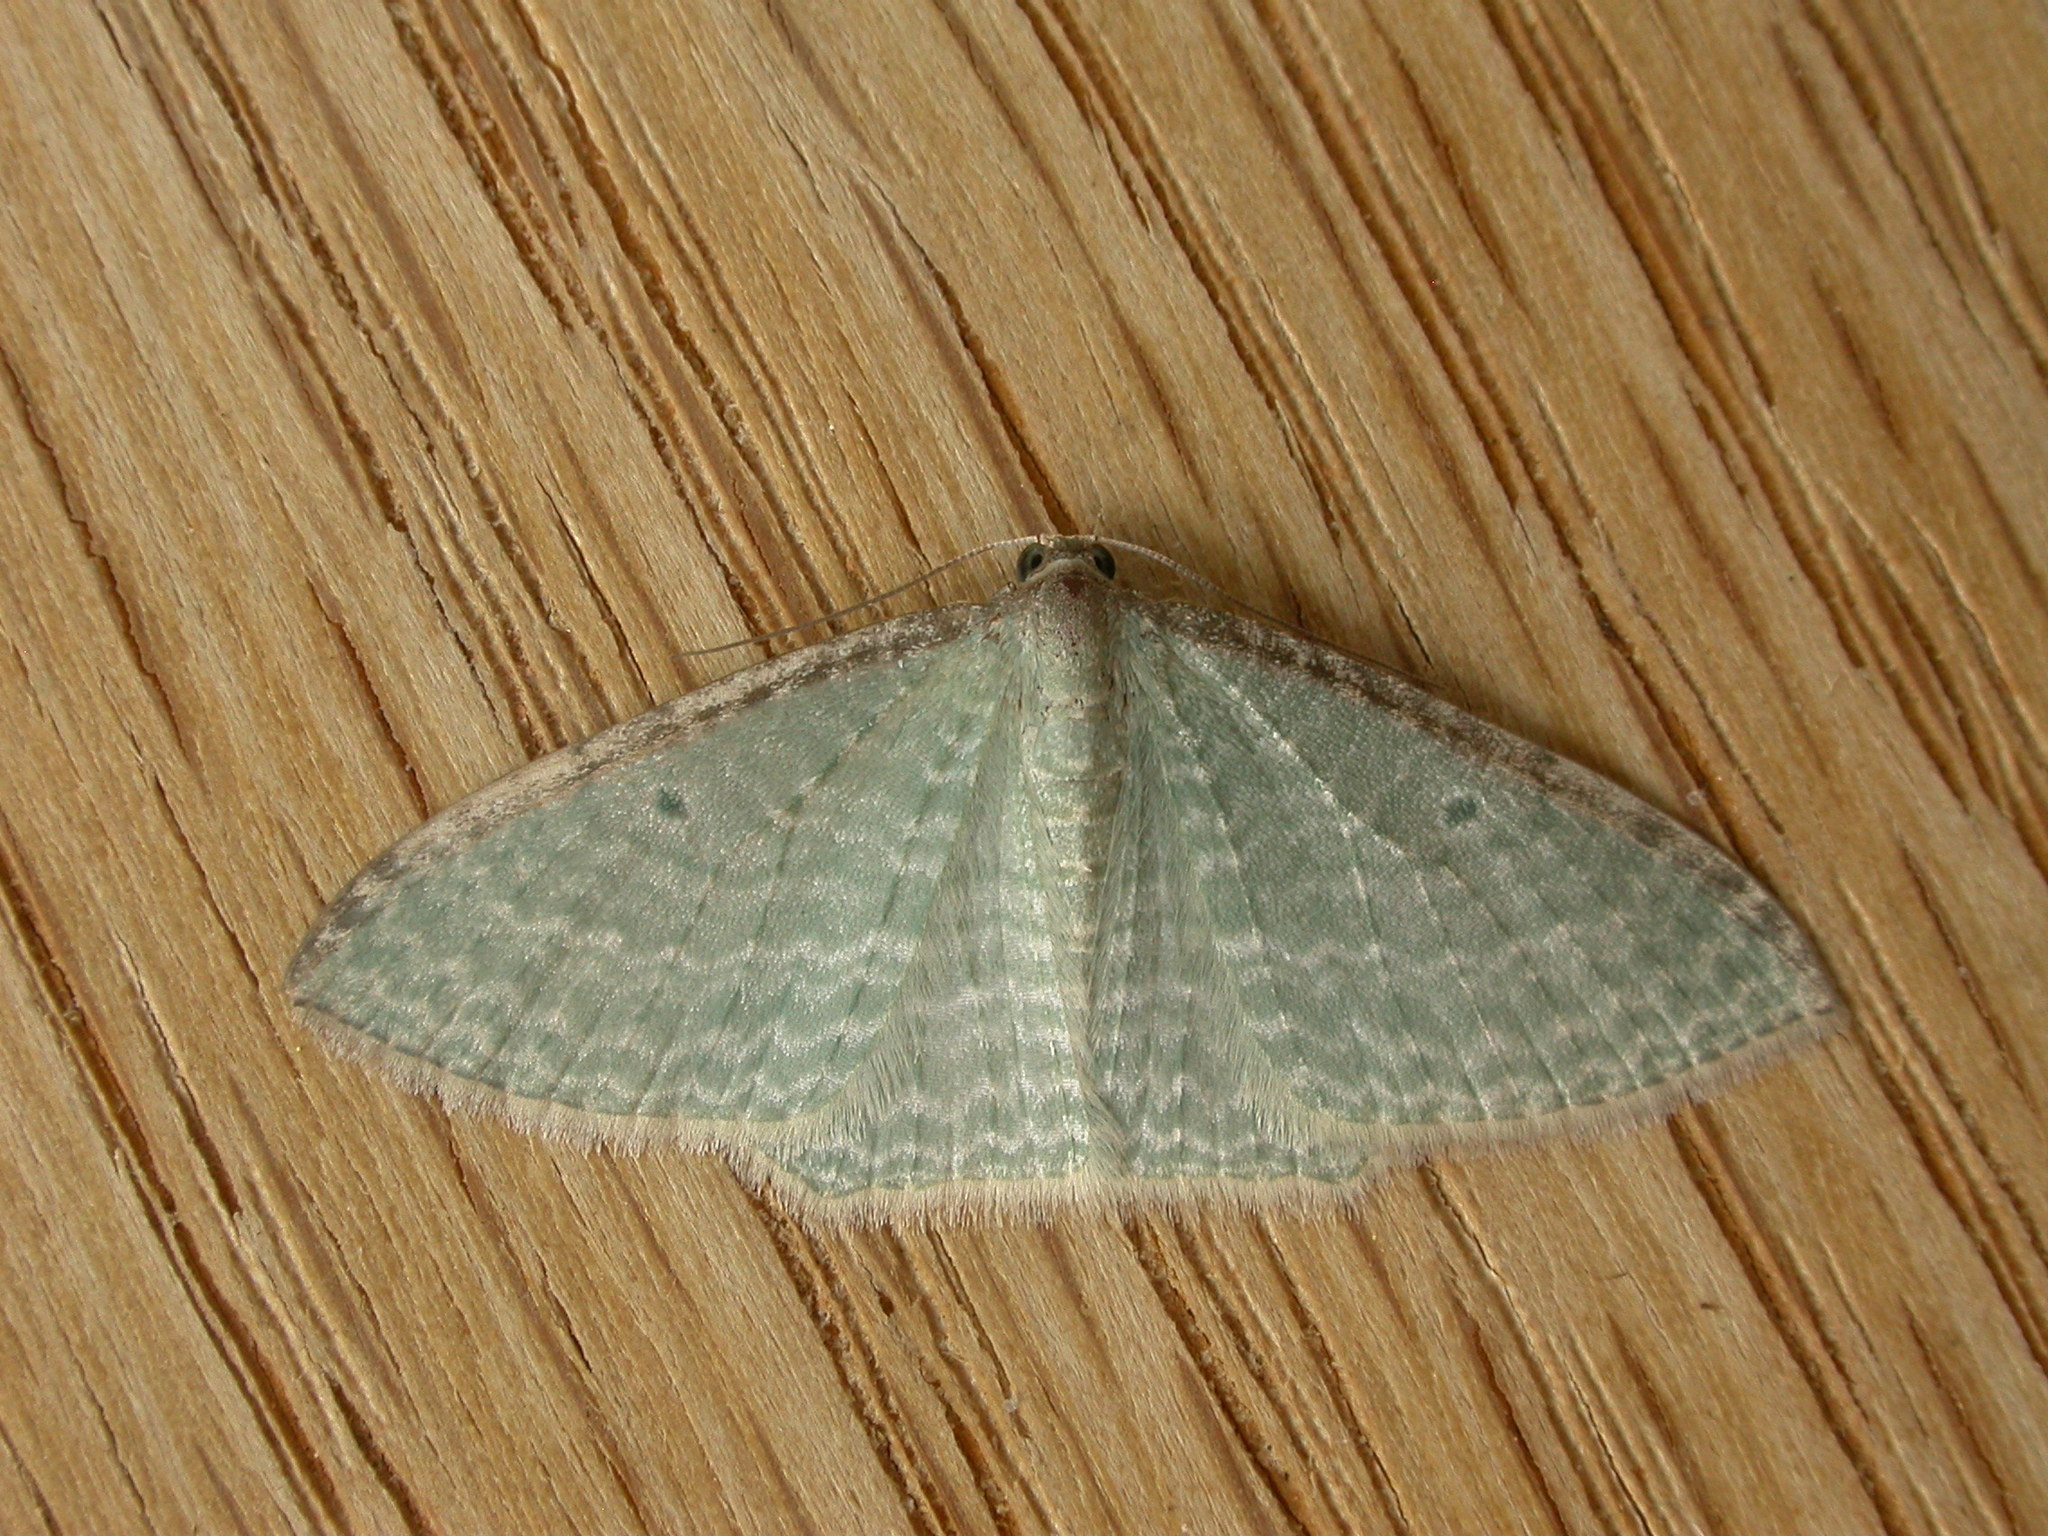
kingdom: Animalia
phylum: Arthropoda
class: Insecta
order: Lepidoptera
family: Geometridae
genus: Poecilasthena
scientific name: Poecilasthena pulchraria
